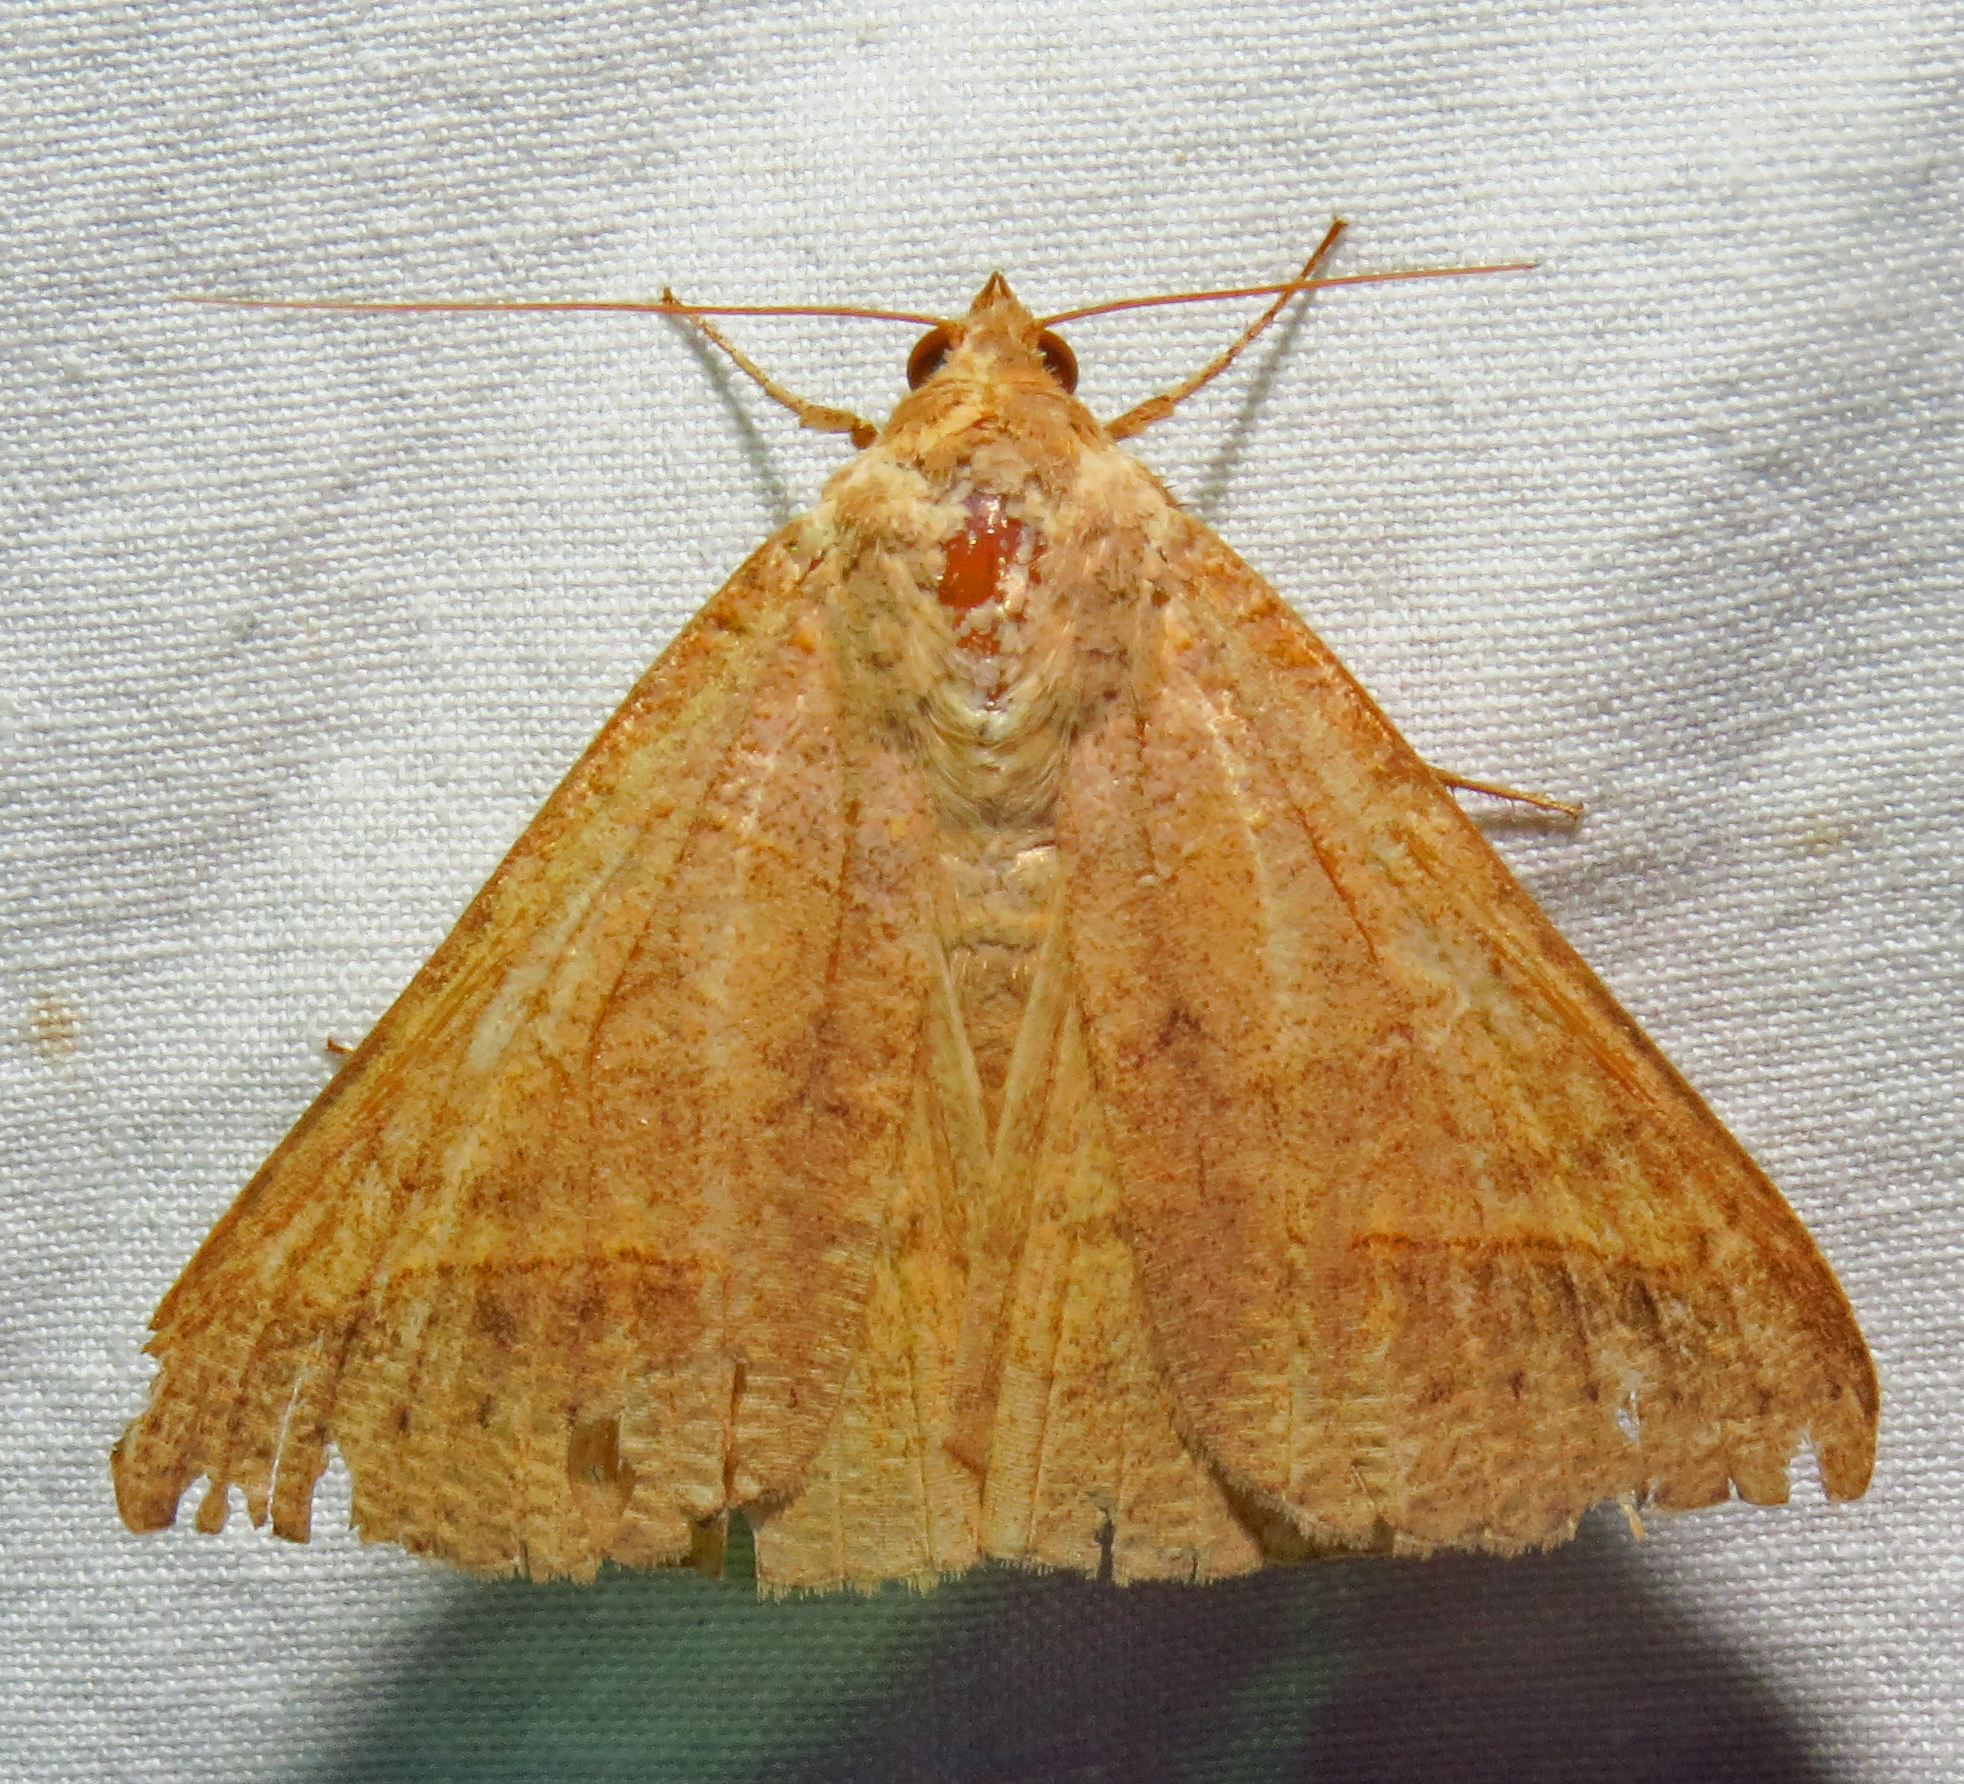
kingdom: Animalia
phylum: Arthropoda
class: Insecta
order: Lepidoptera
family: Erebidae
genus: Mocis
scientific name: Mocis marcida
